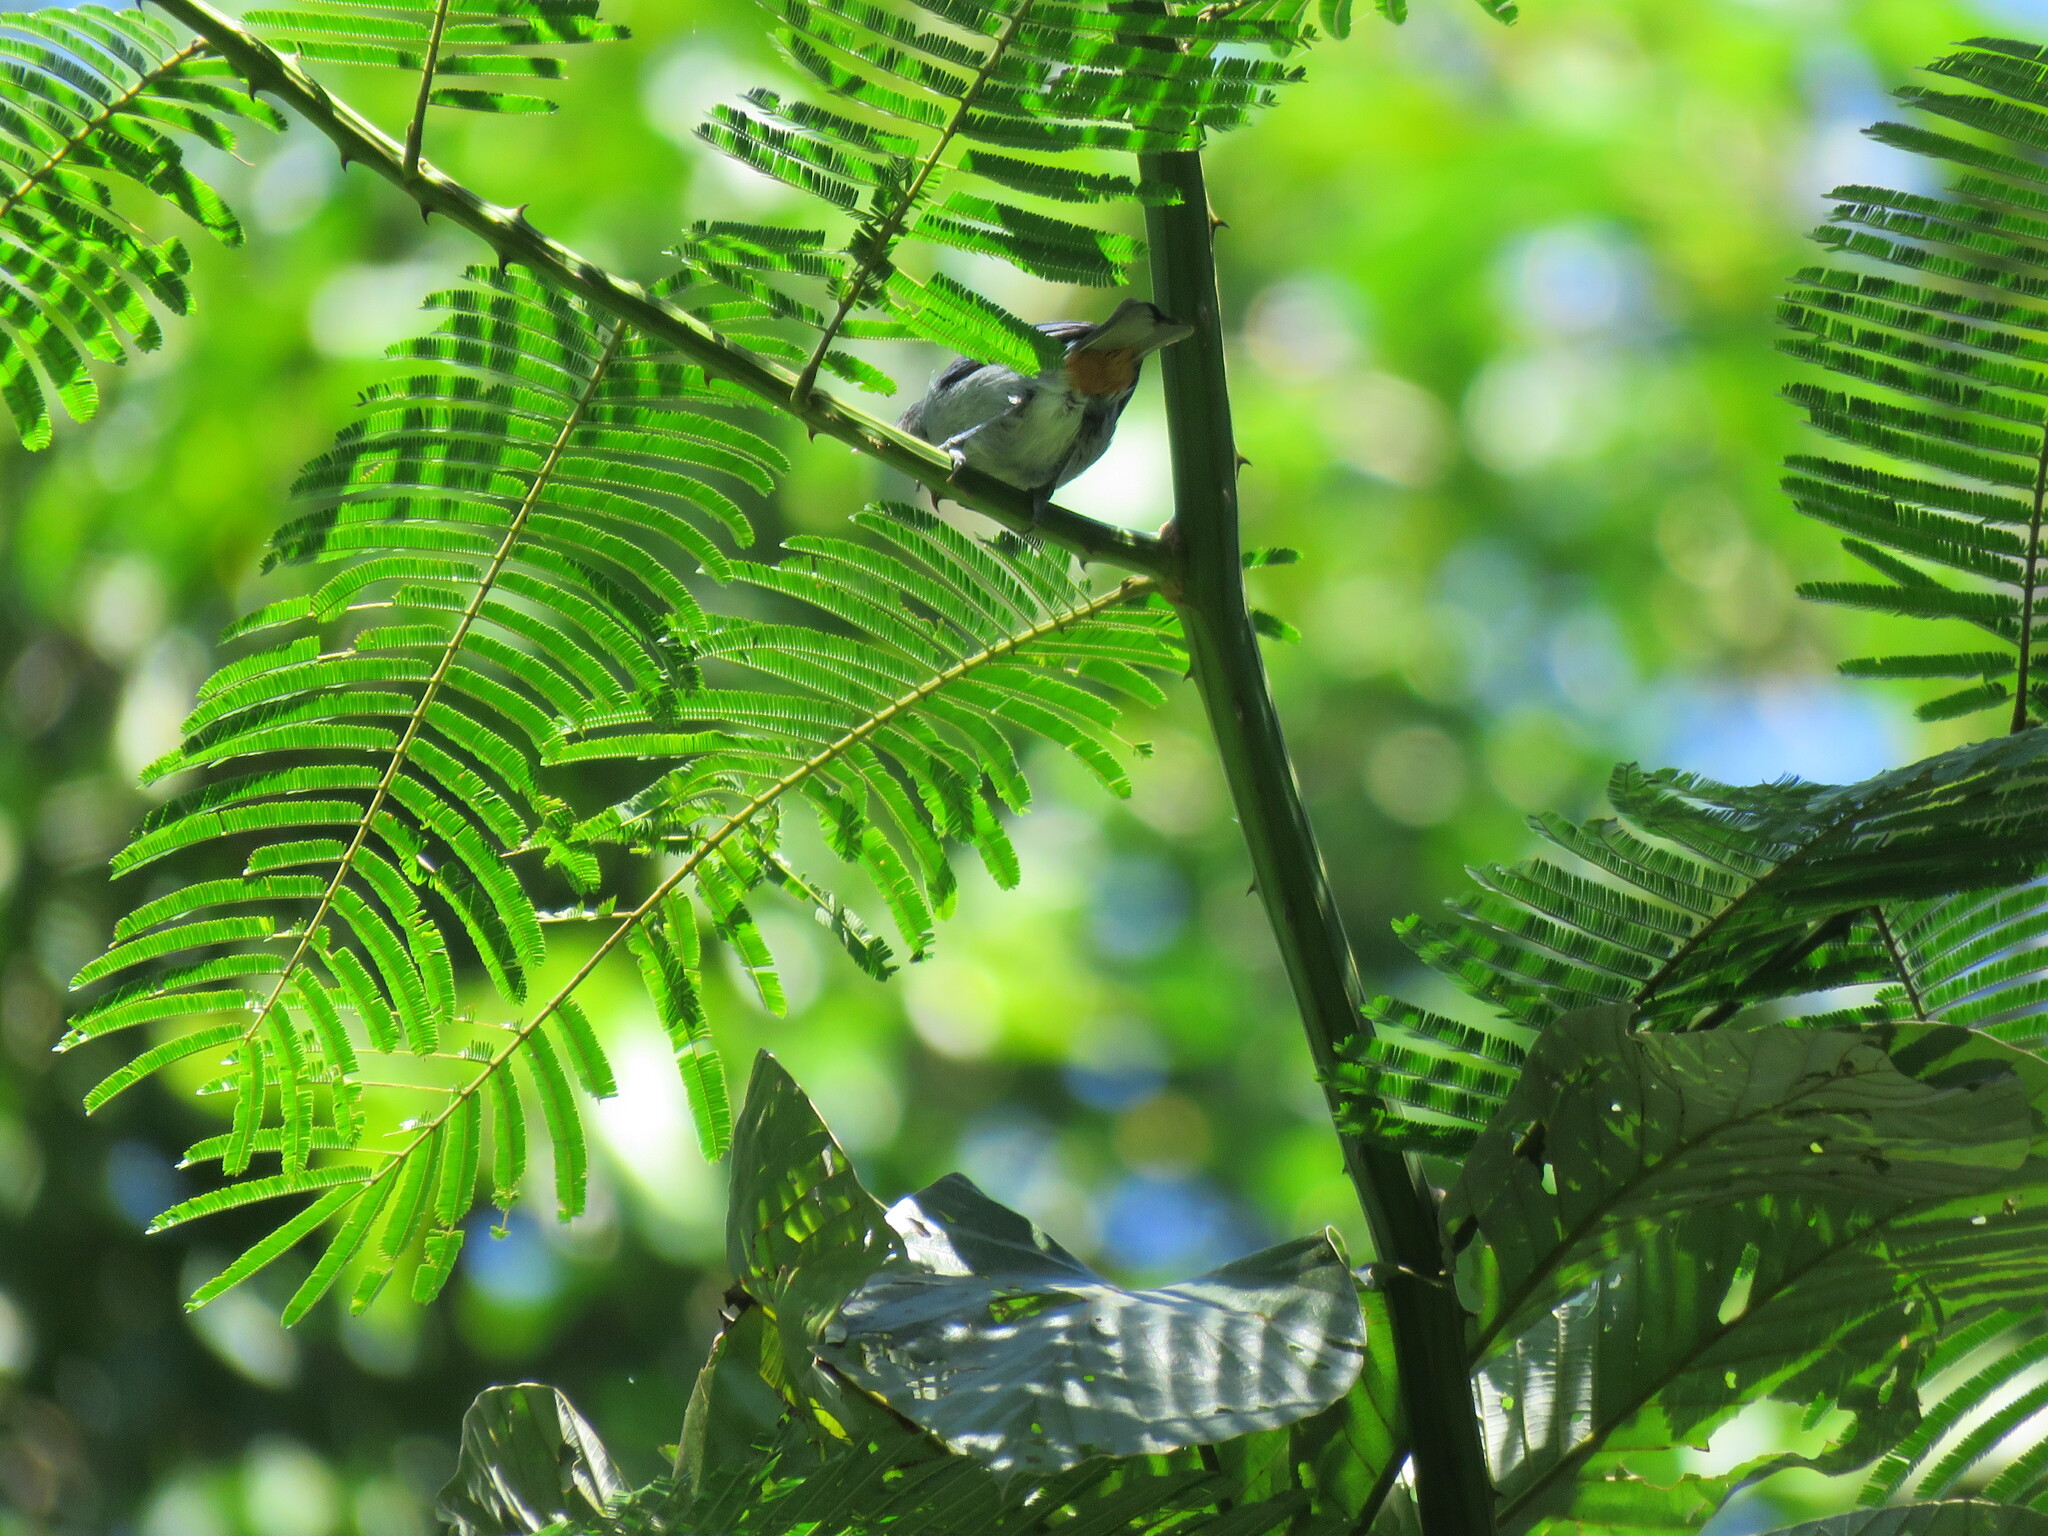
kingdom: Animalia
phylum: Chordata
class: Aves
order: Passeriformes
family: Thraupidae
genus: Conirostrum
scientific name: Conirostrum speciosum
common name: Chestnut-vented conebill
